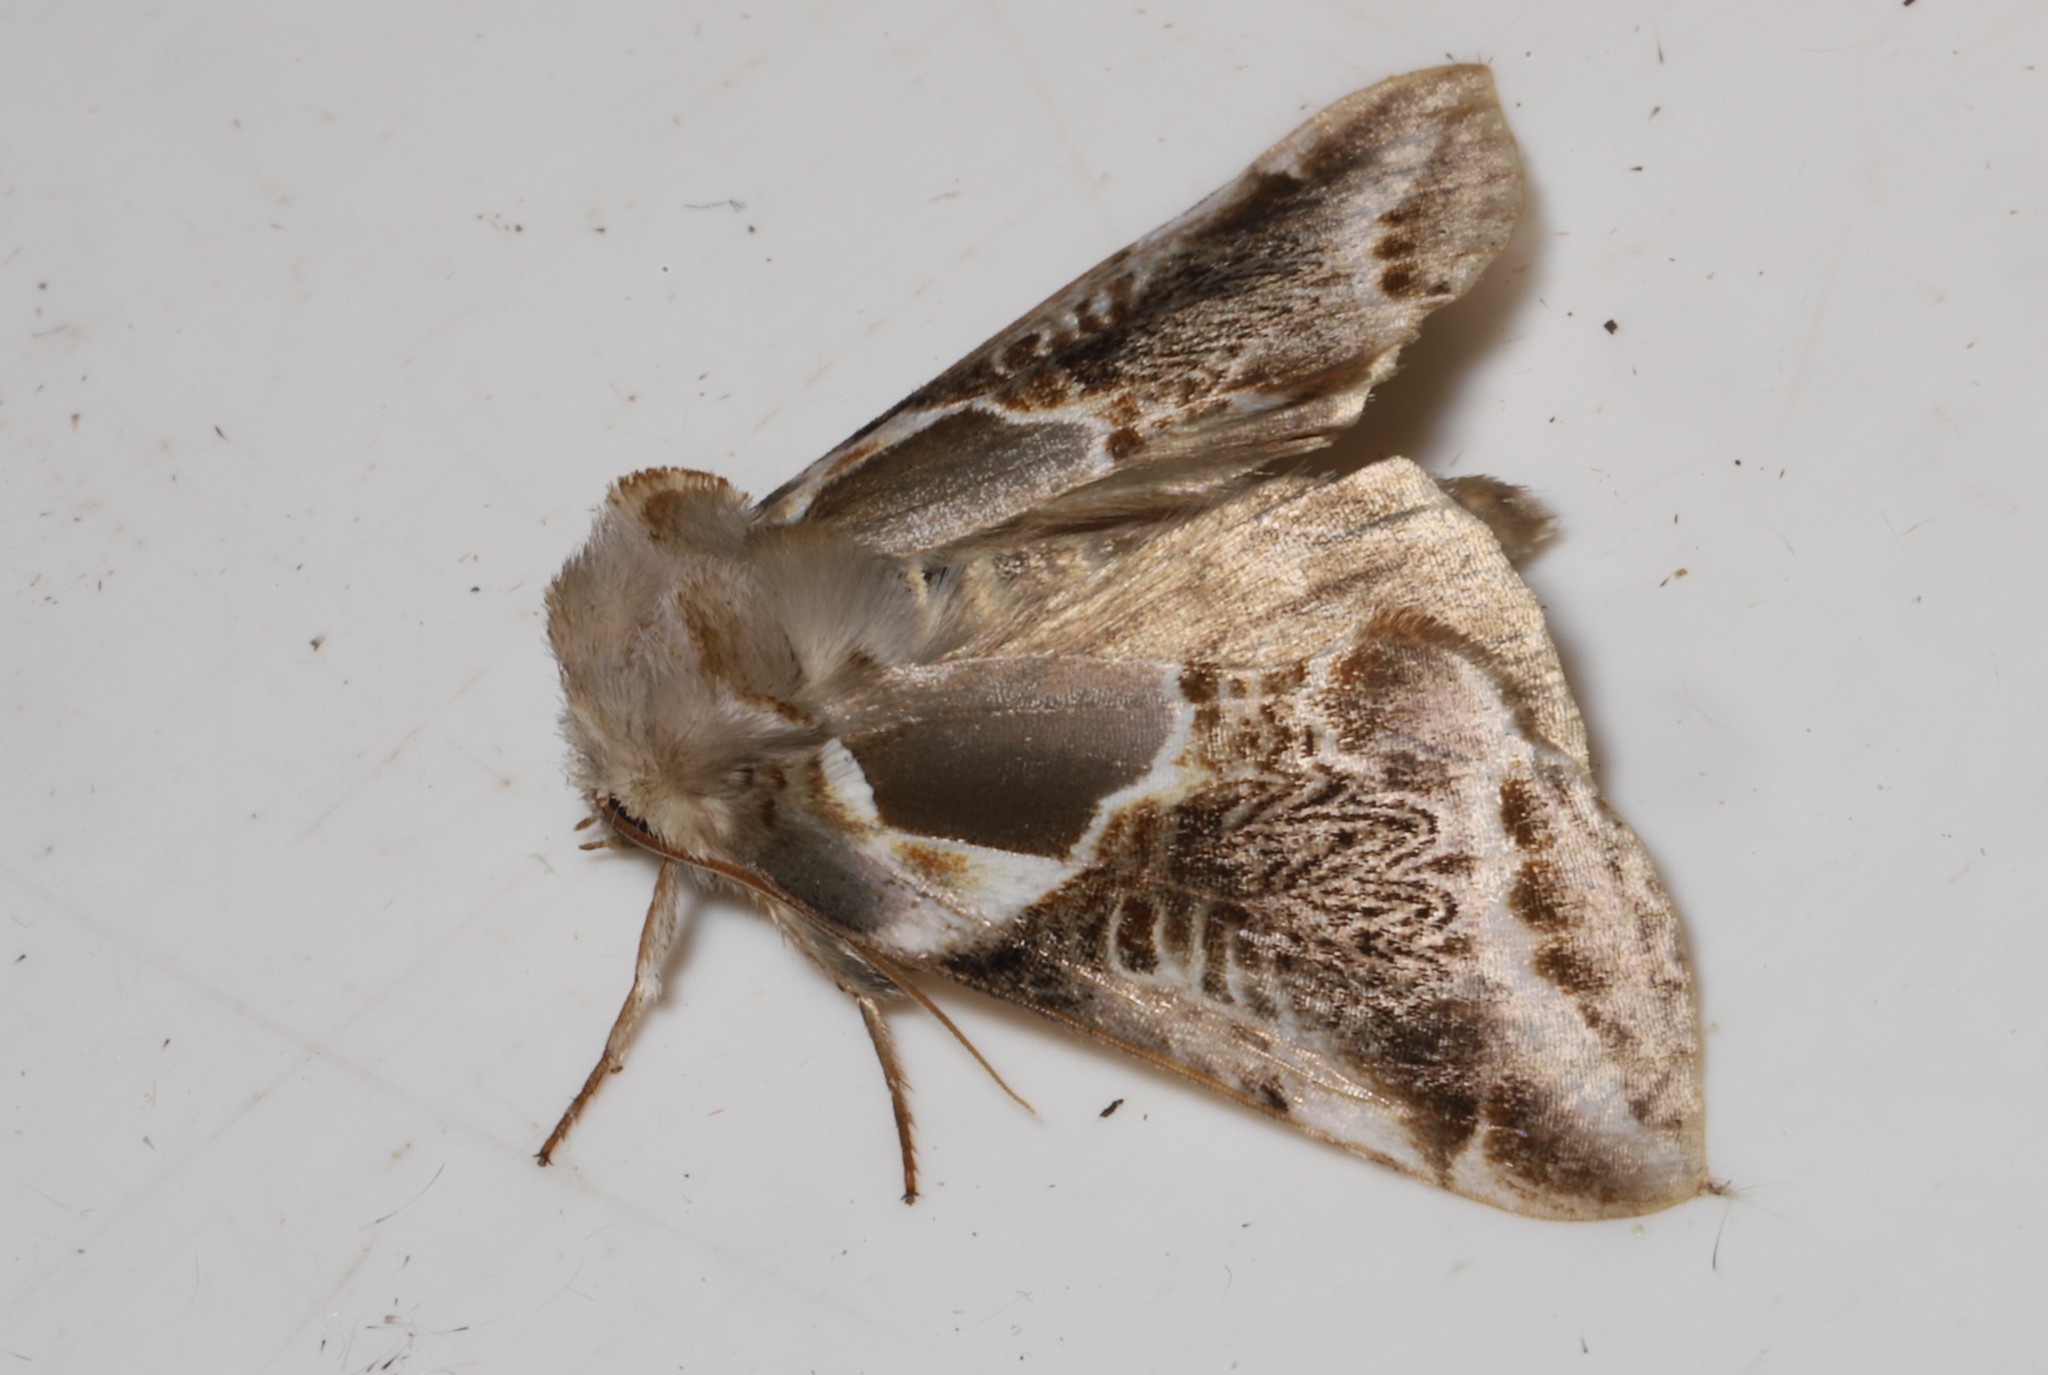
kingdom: Animalia
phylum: Arthropoda
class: Insecta
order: Lepidoptera
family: Drepanidae
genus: Habrosyne
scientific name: Habrosyne scripta
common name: Lettered habrosyne moth
